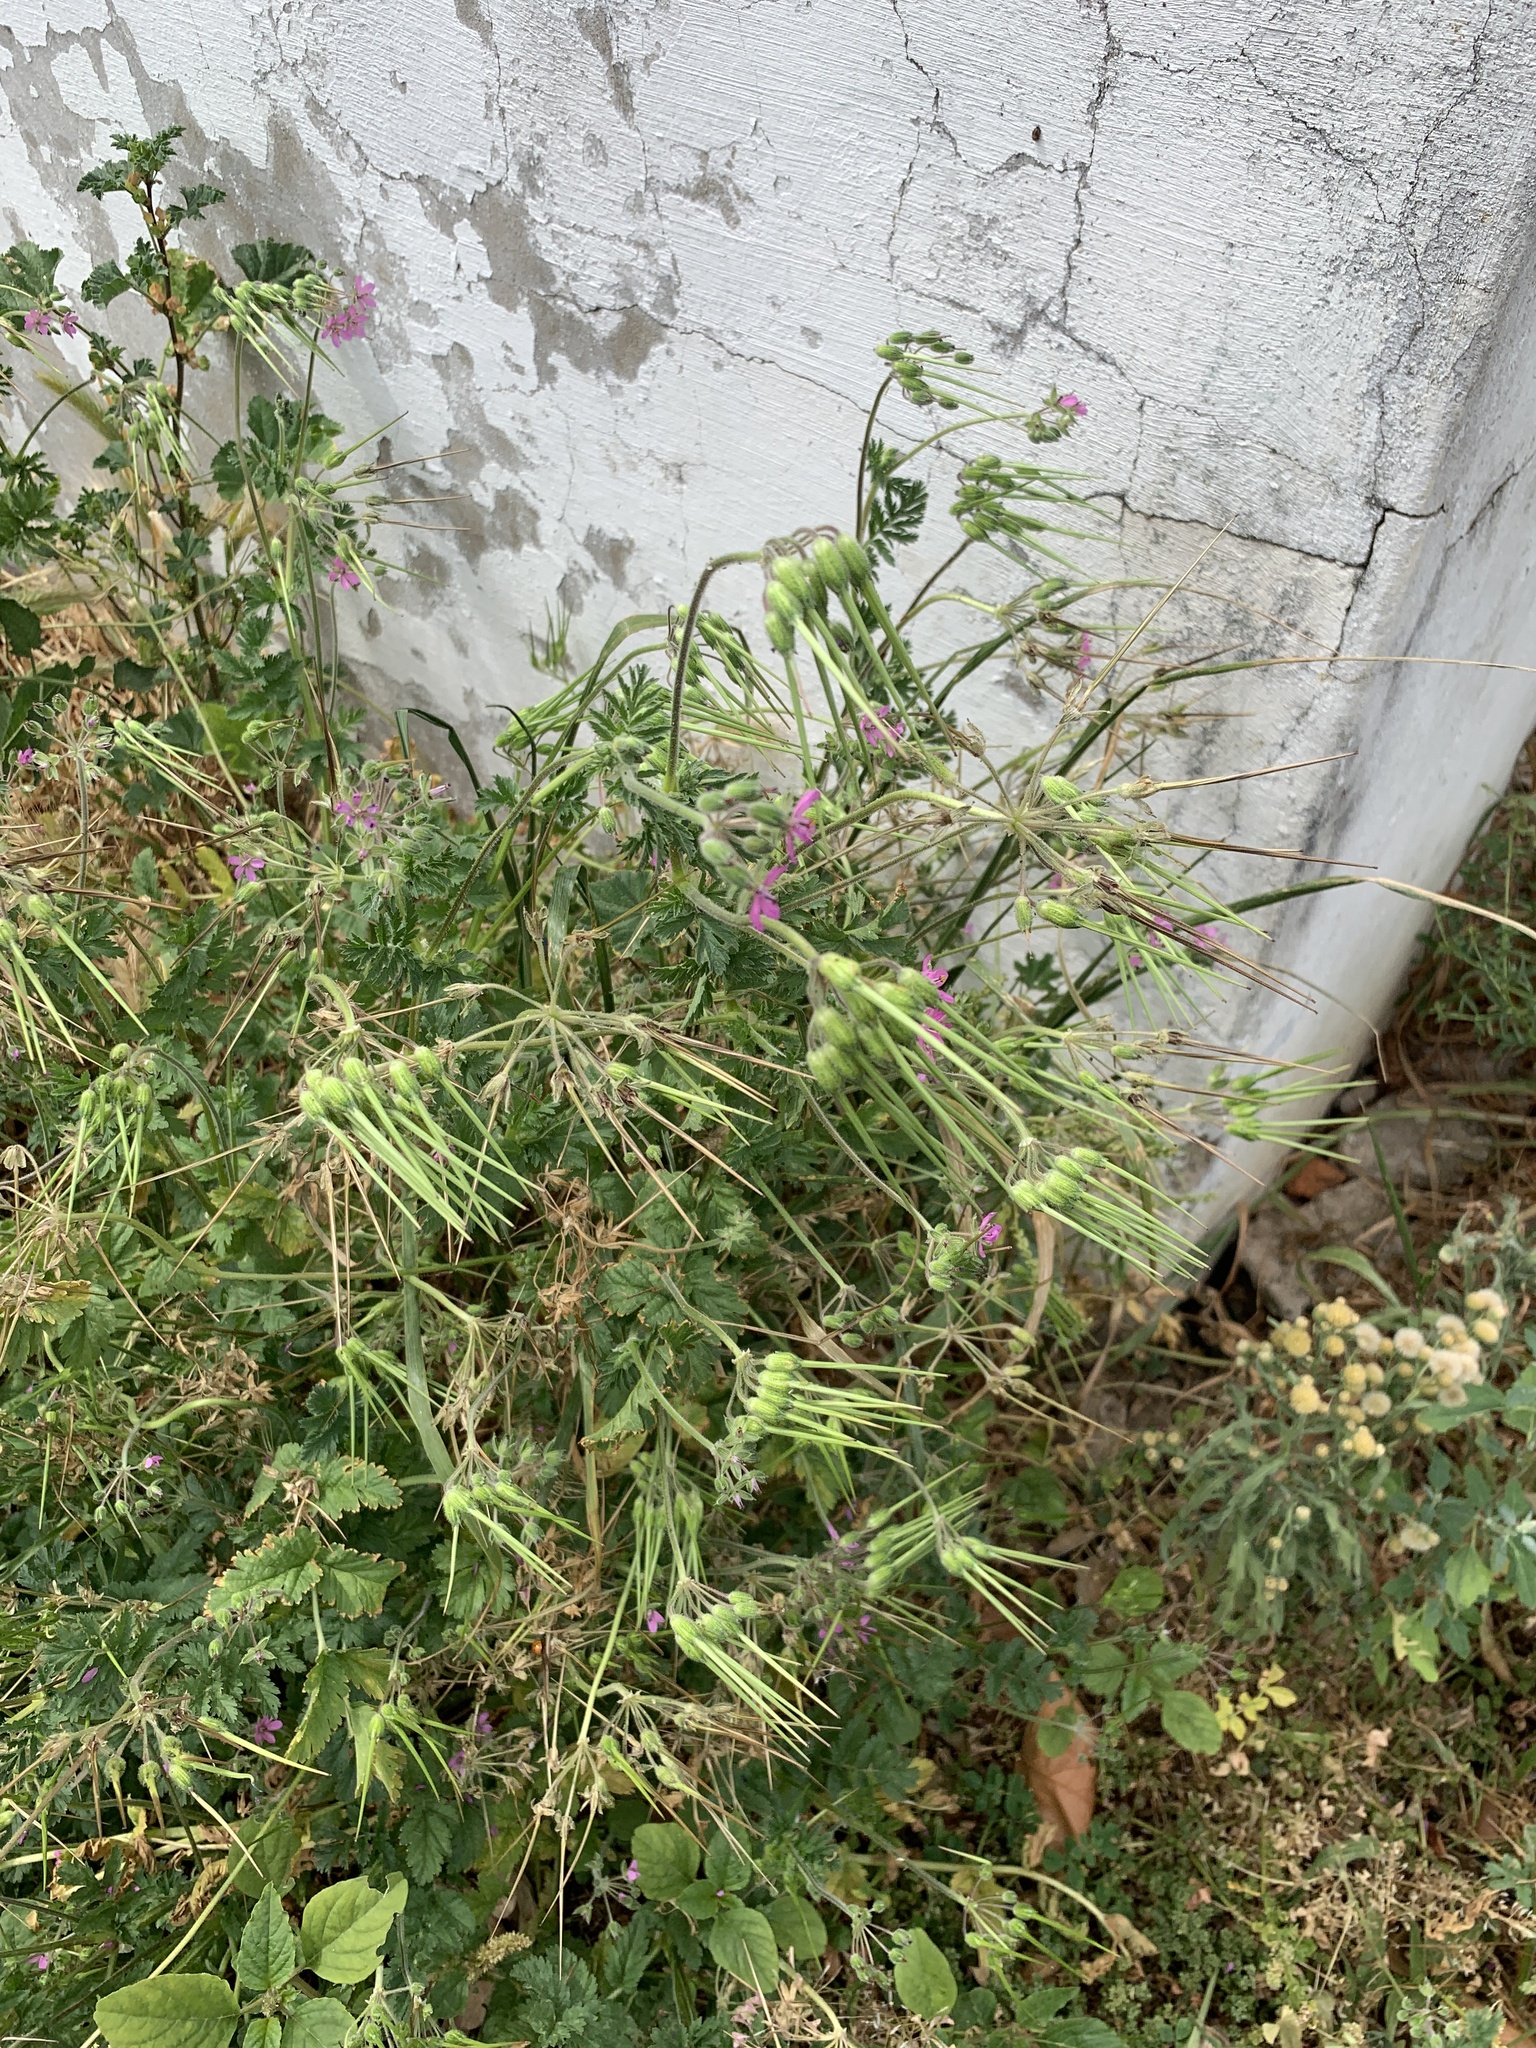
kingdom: Plantae
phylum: Tracheophyta
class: Magnoliopsida
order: Geraniales
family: Geraniaceae
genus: Erodium
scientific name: Erodium moschatum
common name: Musk stork's-bill
